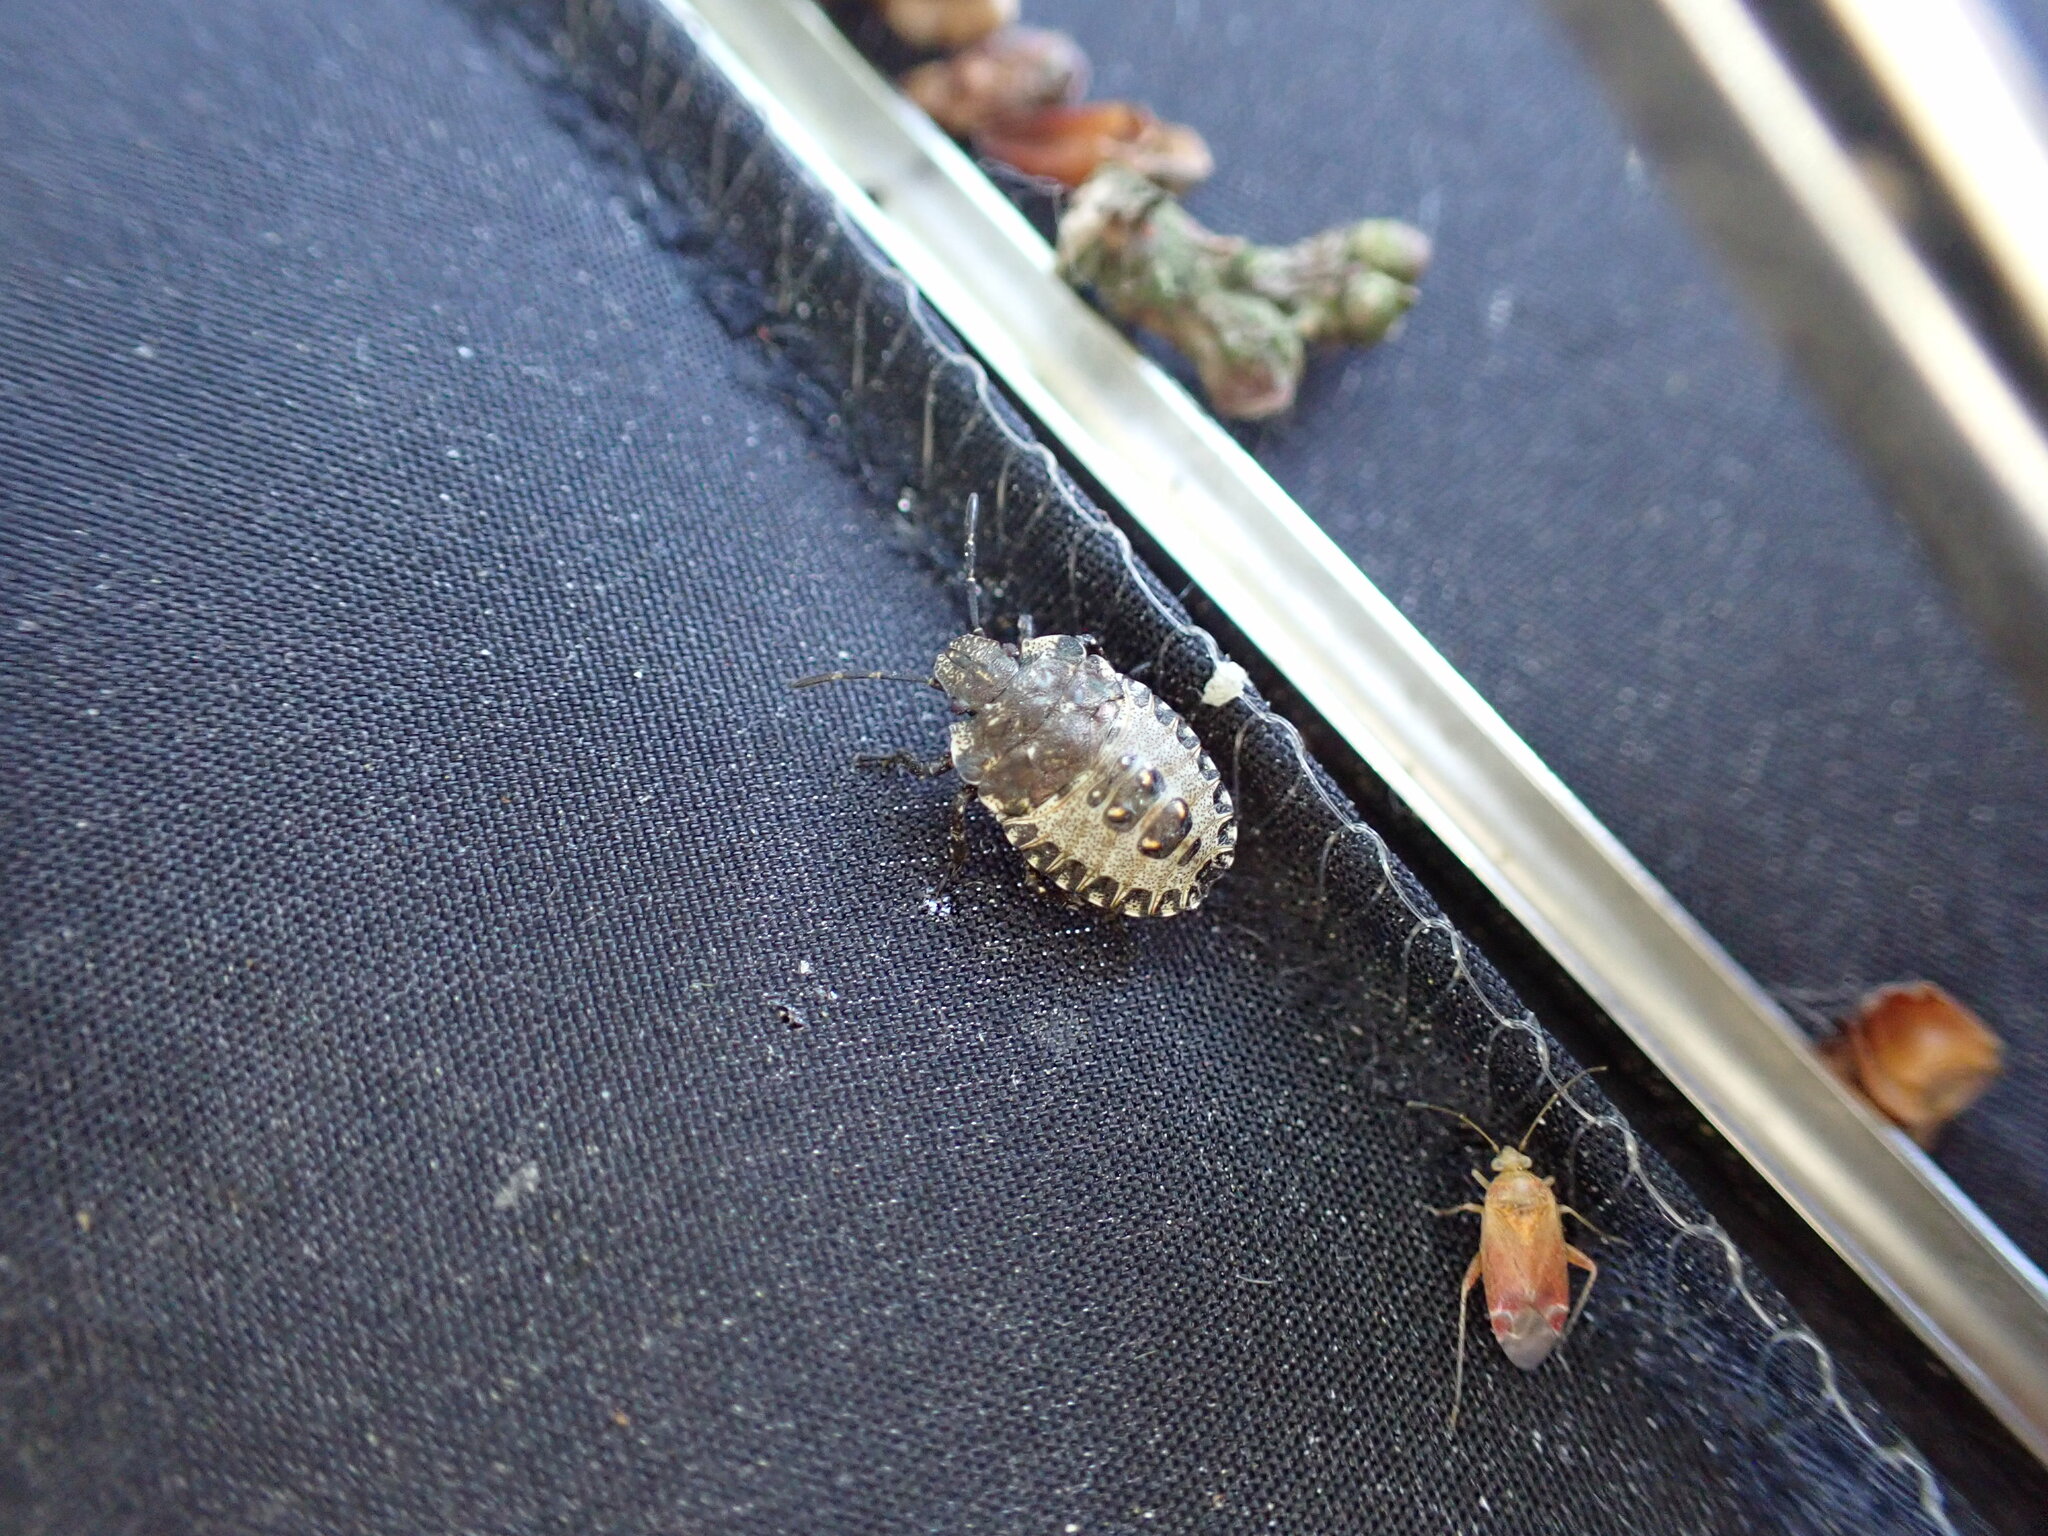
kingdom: Animalia
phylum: Arthropoda
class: Insecta
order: Hemiptera
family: Pentatomidae
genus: Pentatoma
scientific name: Pentatoma rufipes
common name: Forest bug
